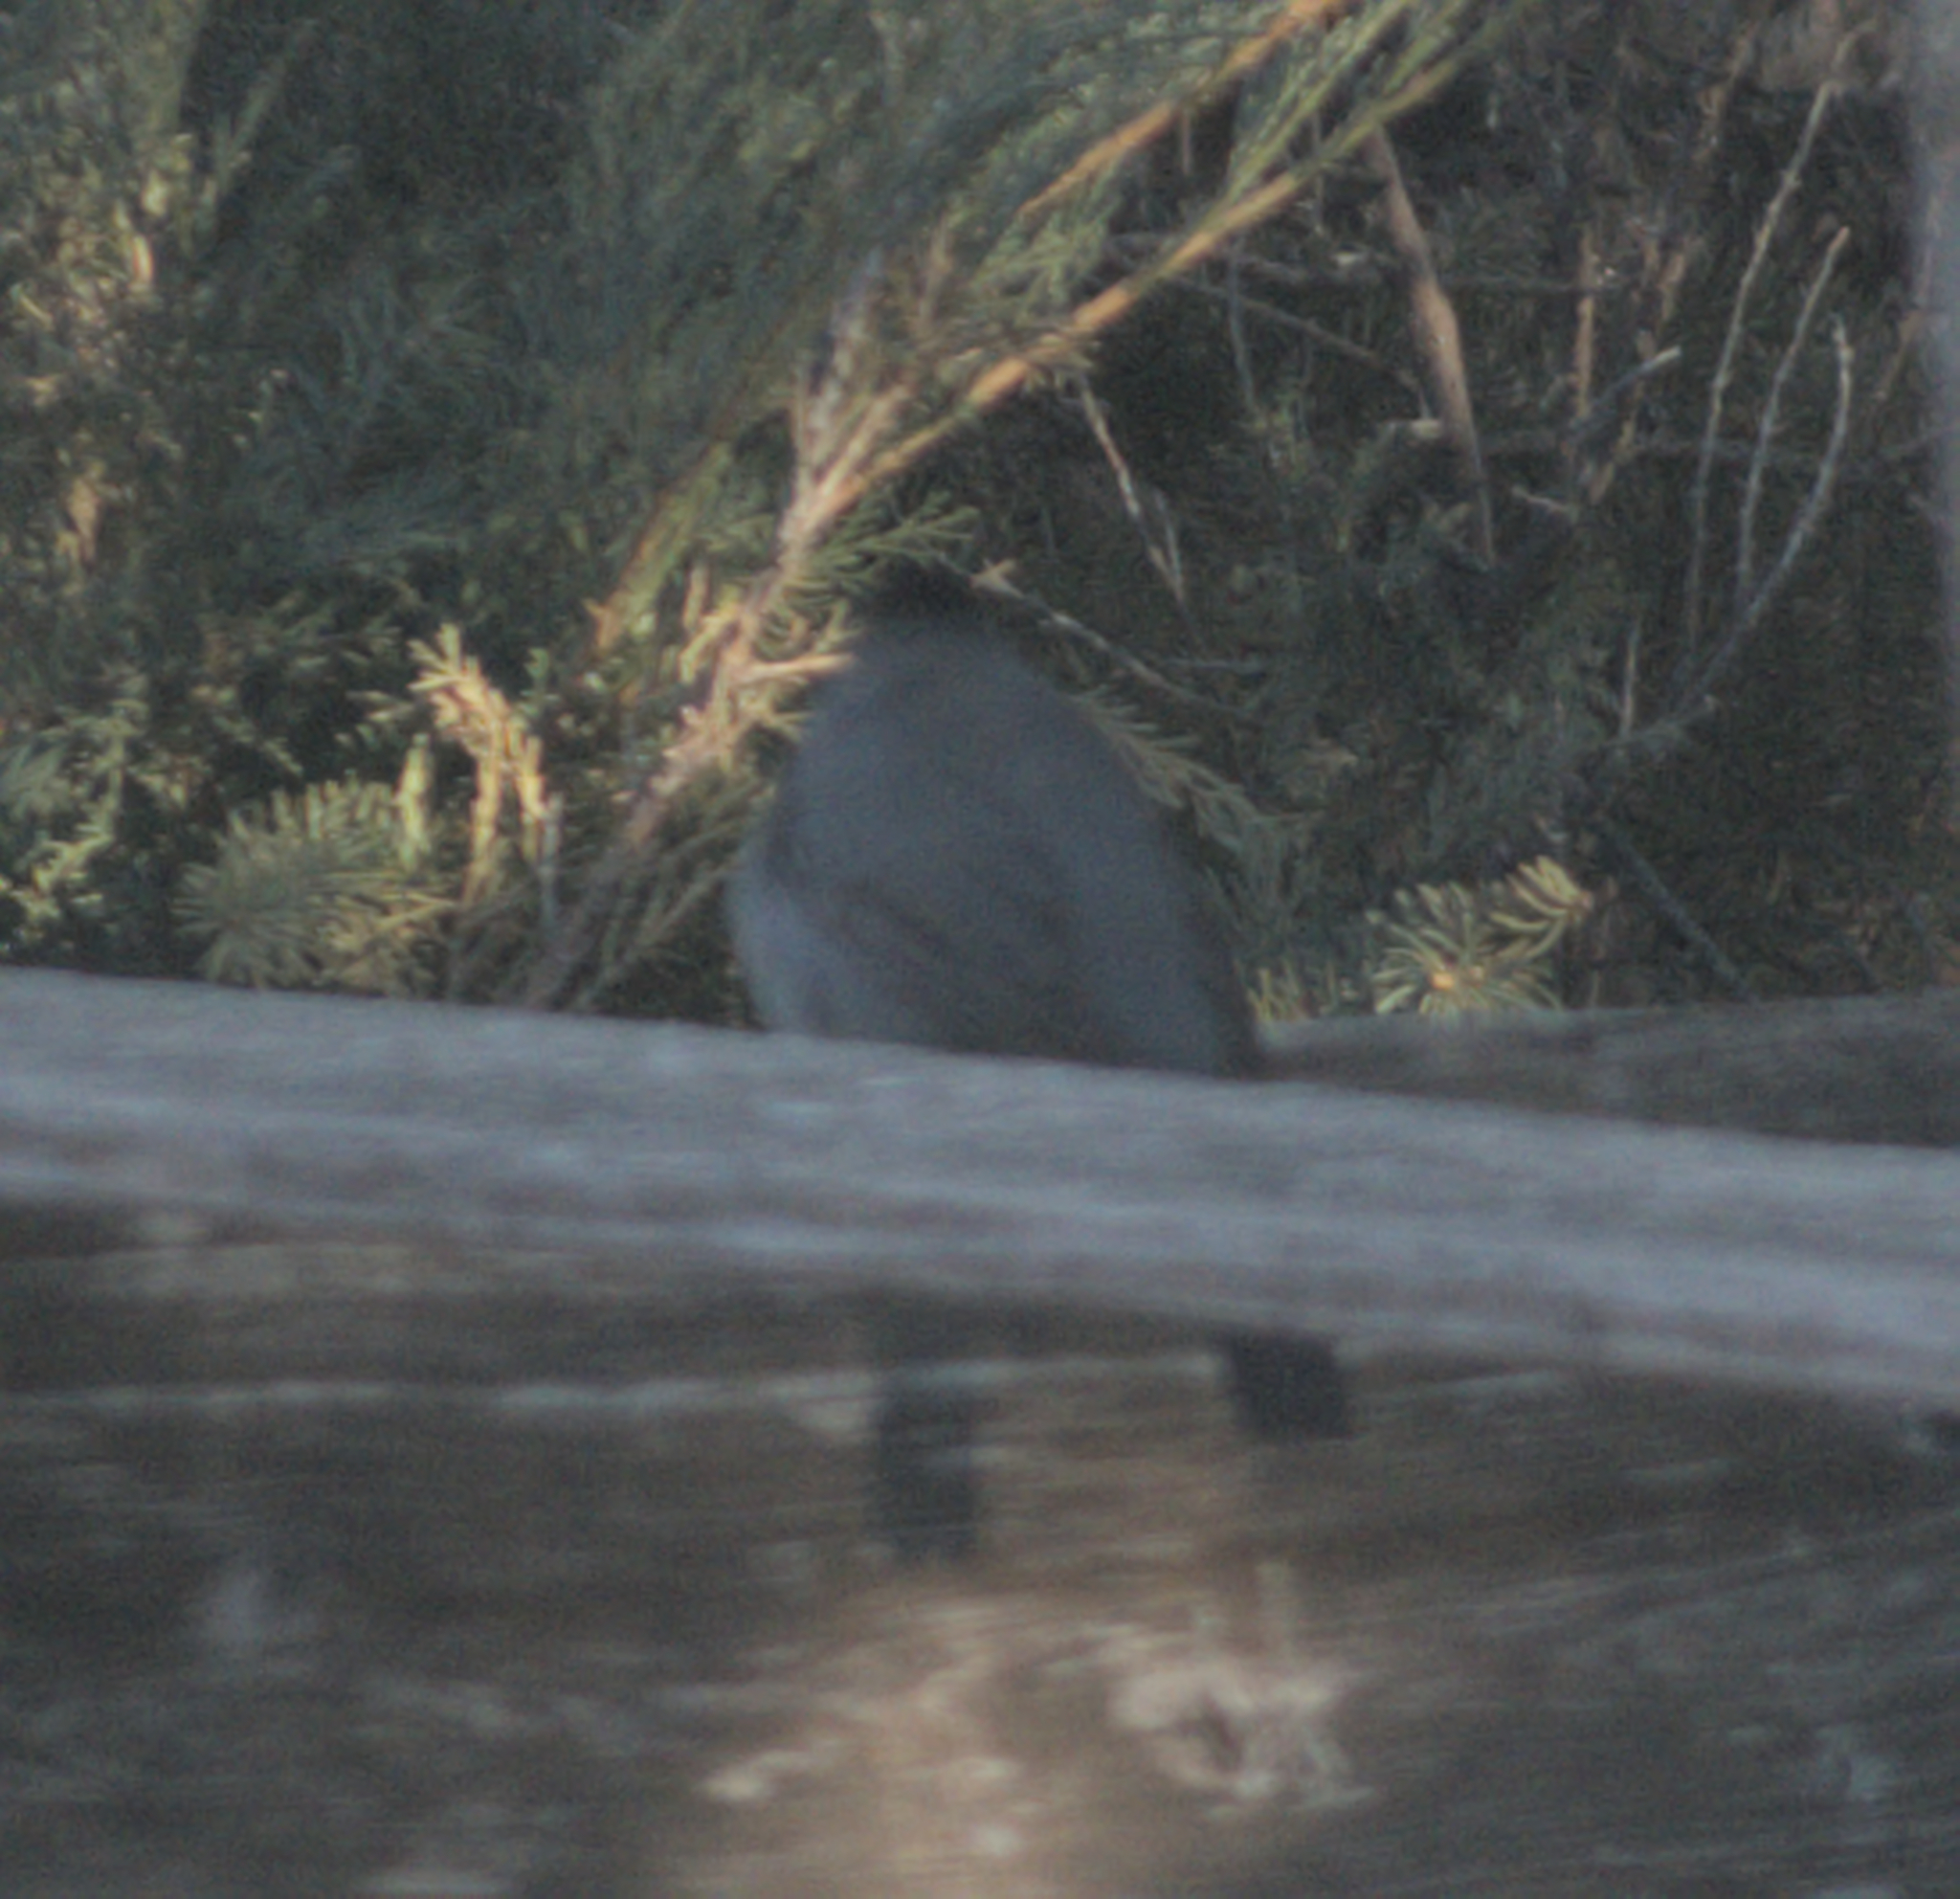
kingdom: Animalia
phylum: Chordata
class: Aves
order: Passeriformes
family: Mimidae
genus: Dumetella
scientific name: Dumetella carolinensis
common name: Gray catbird
